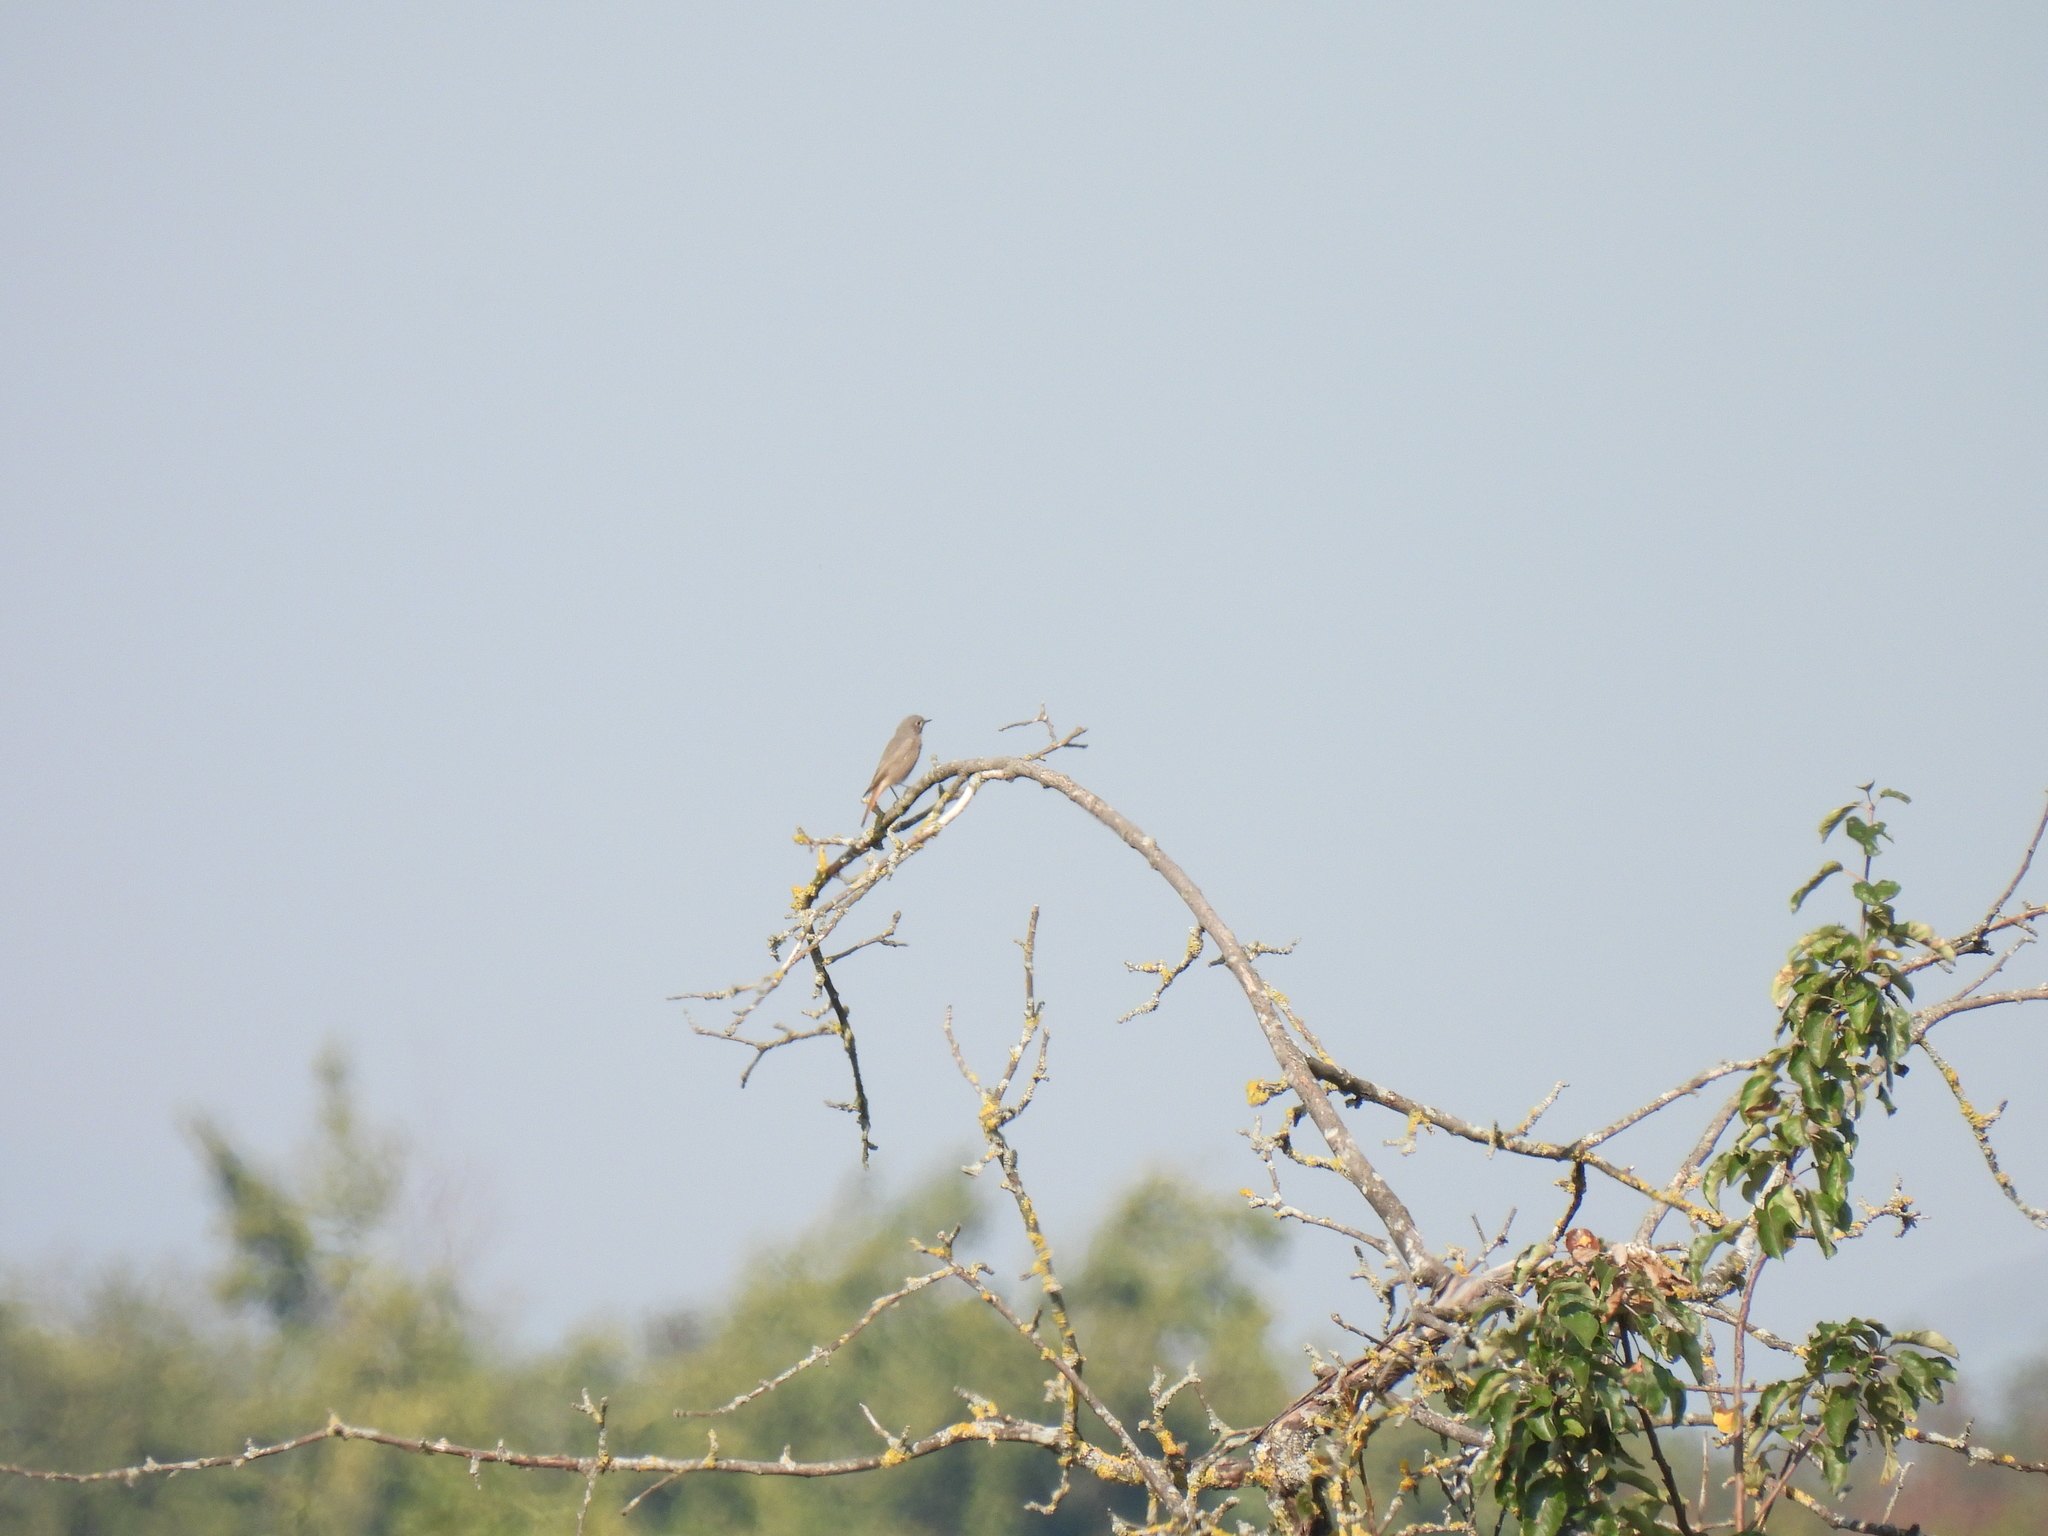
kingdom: Animalia
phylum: Chordata
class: Aves
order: Passeriformes
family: Muscicapidae
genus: Phoenicurus
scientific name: Phoenicurus ochruros
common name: Black redstart
